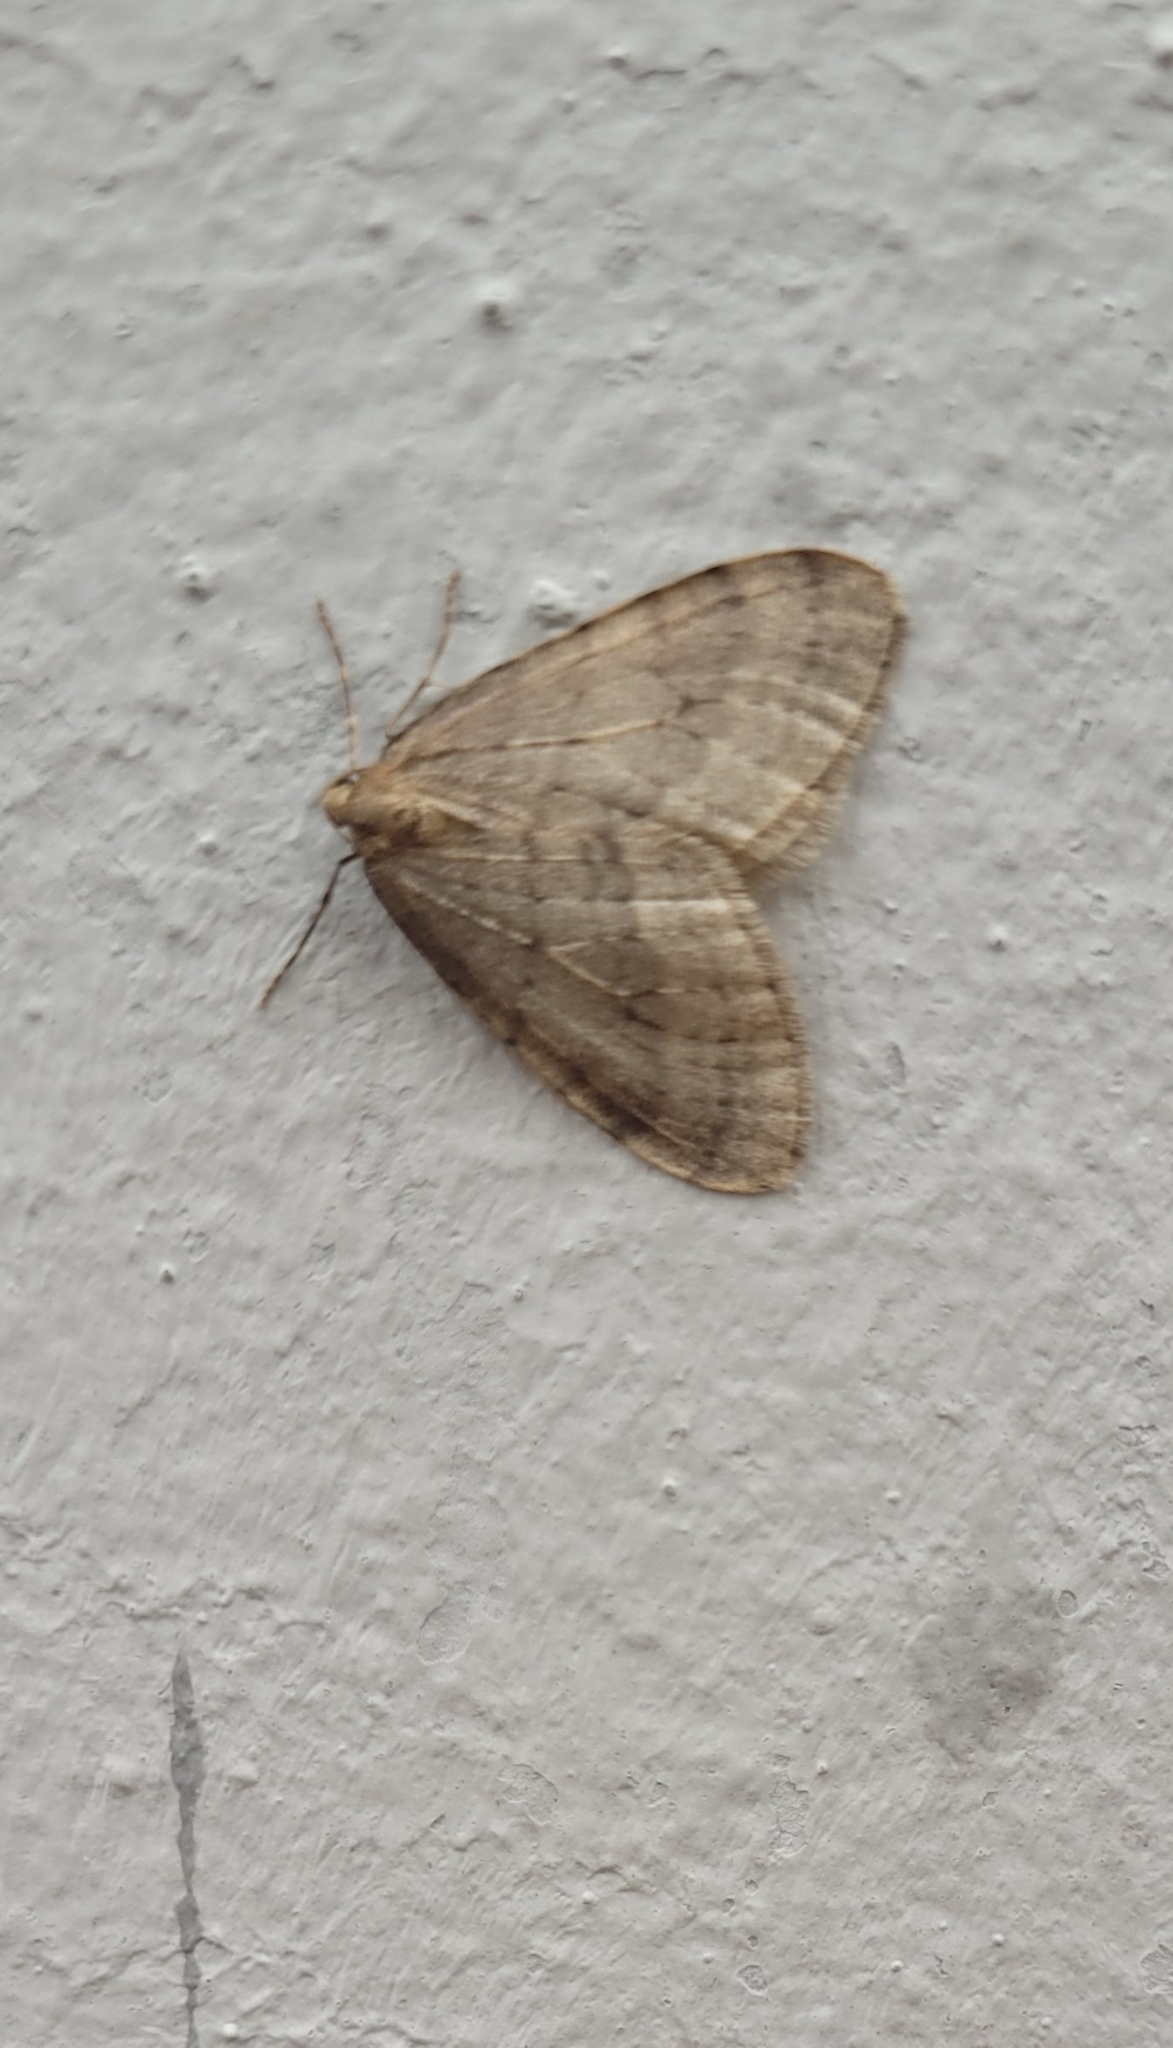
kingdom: Animalia
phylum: Arthropoda
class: Insecta
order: Lepidoptera
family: Geometridae
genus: Operophtera
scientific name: Operophtera fagata
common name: Northern winter moth
